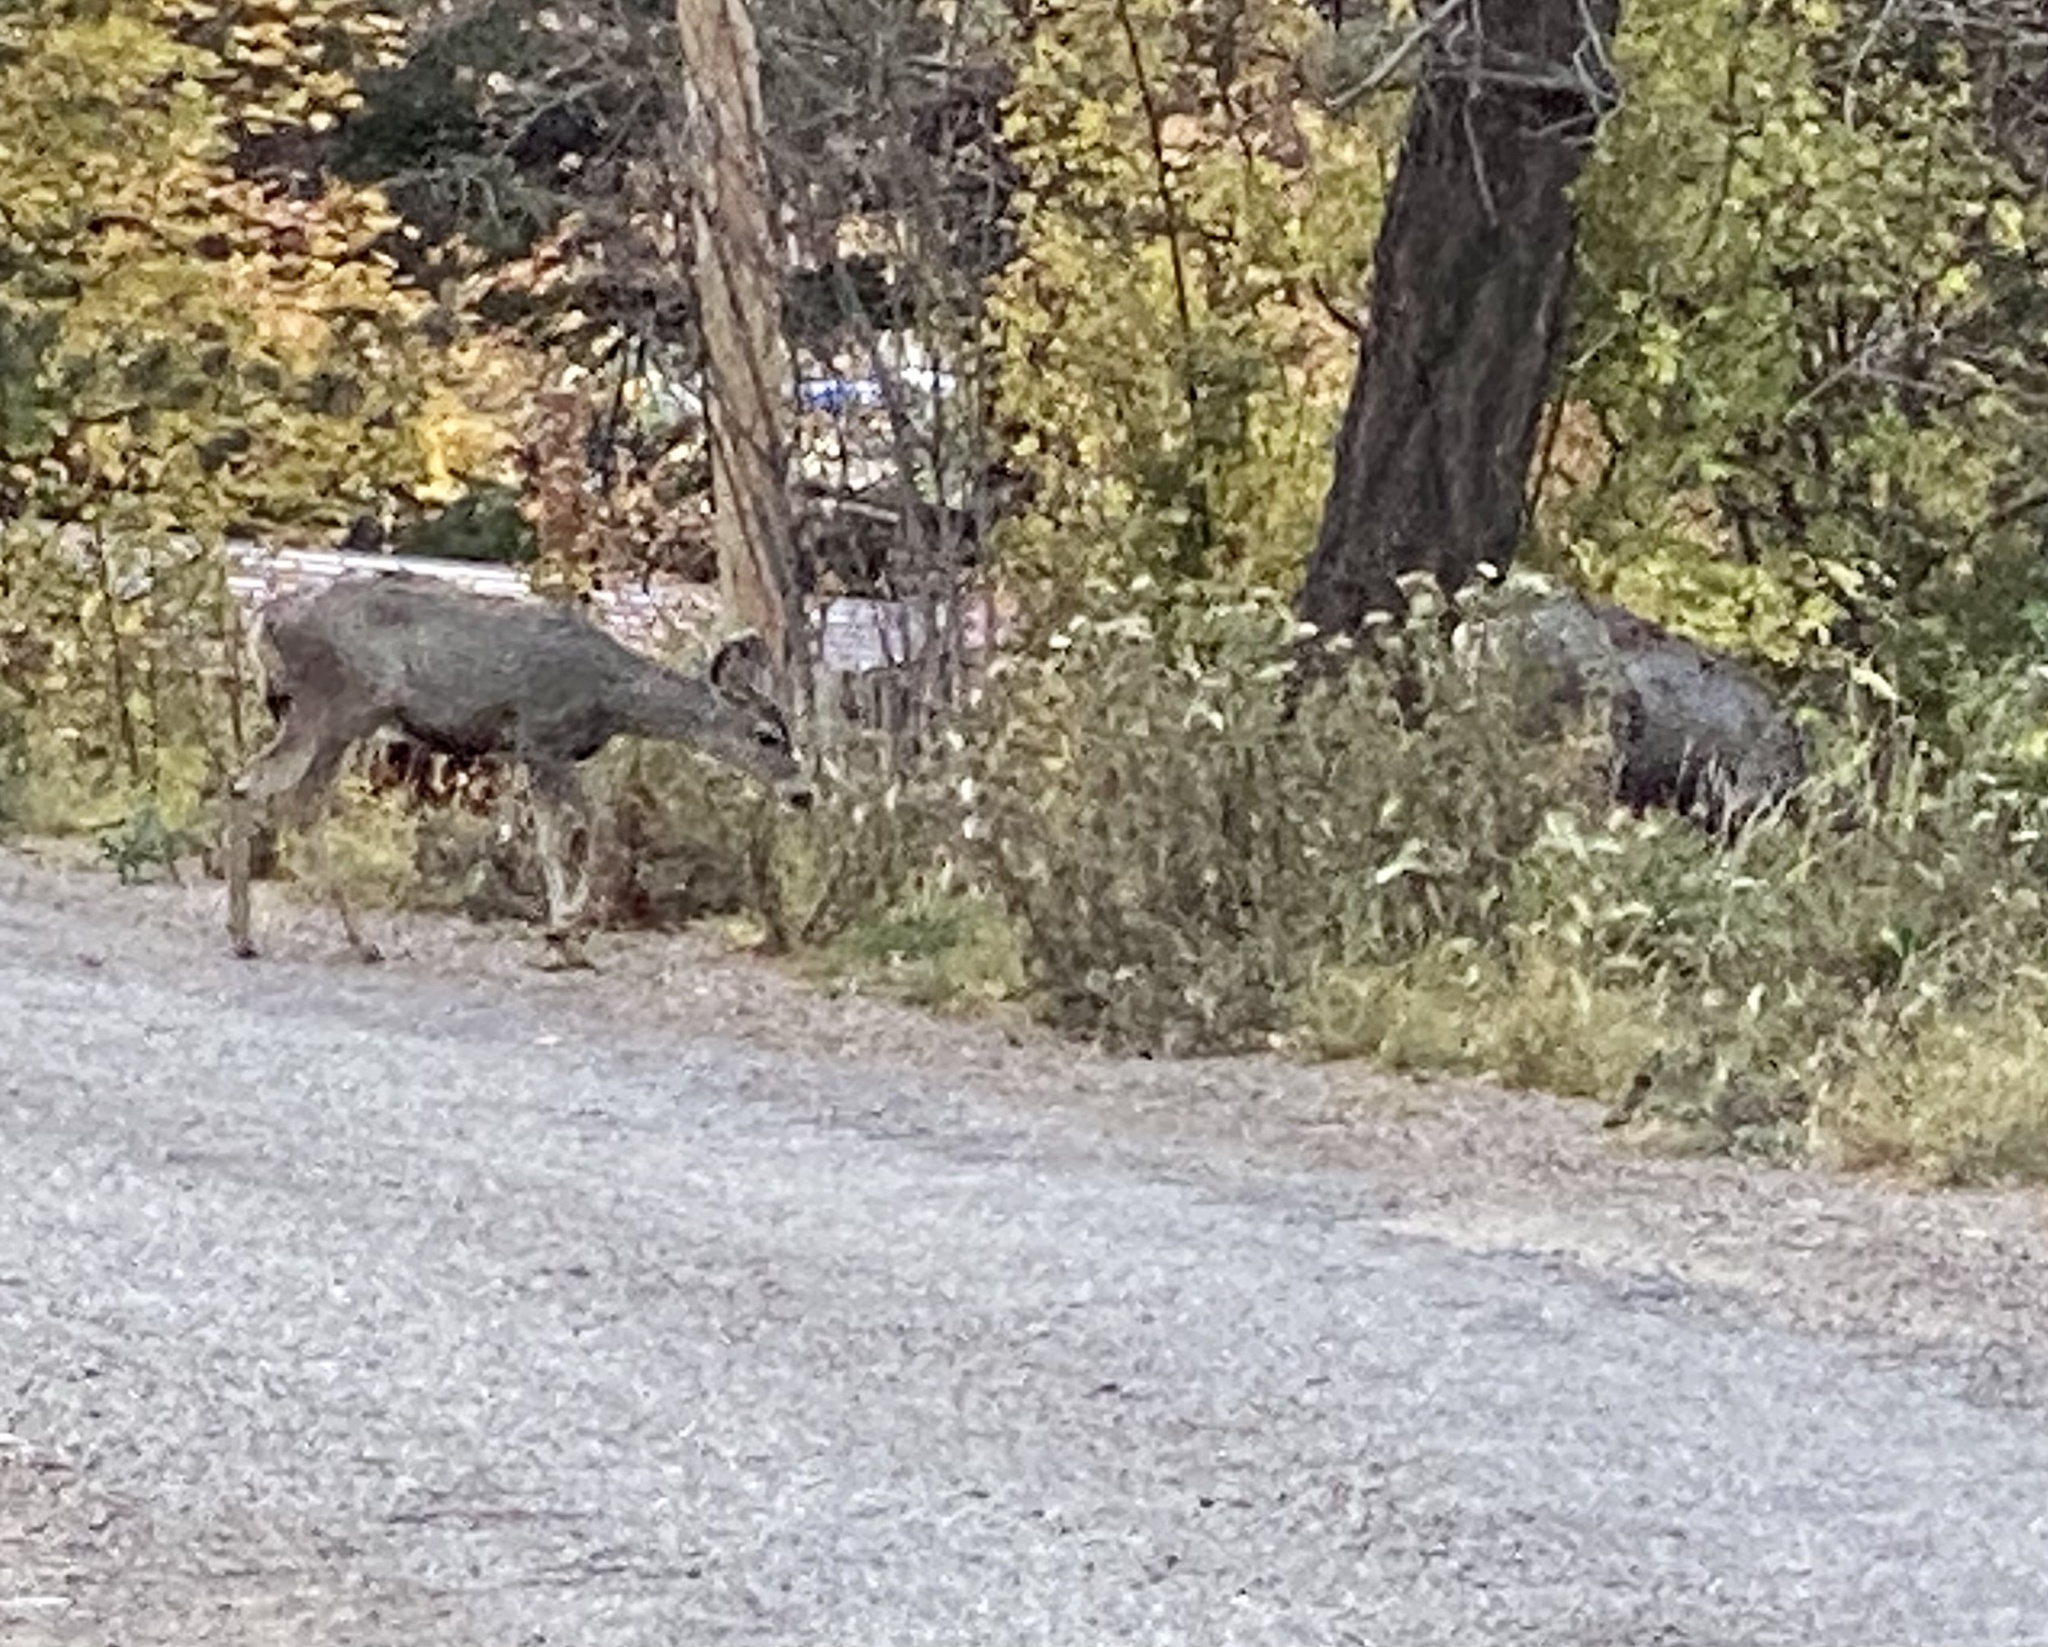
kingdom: Animalia
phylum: Chordata
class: Mammalia
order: Artiodactyla
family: Cervidae
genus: Odocoileus
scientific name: Odocoileus hemionus
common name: Mule deer
